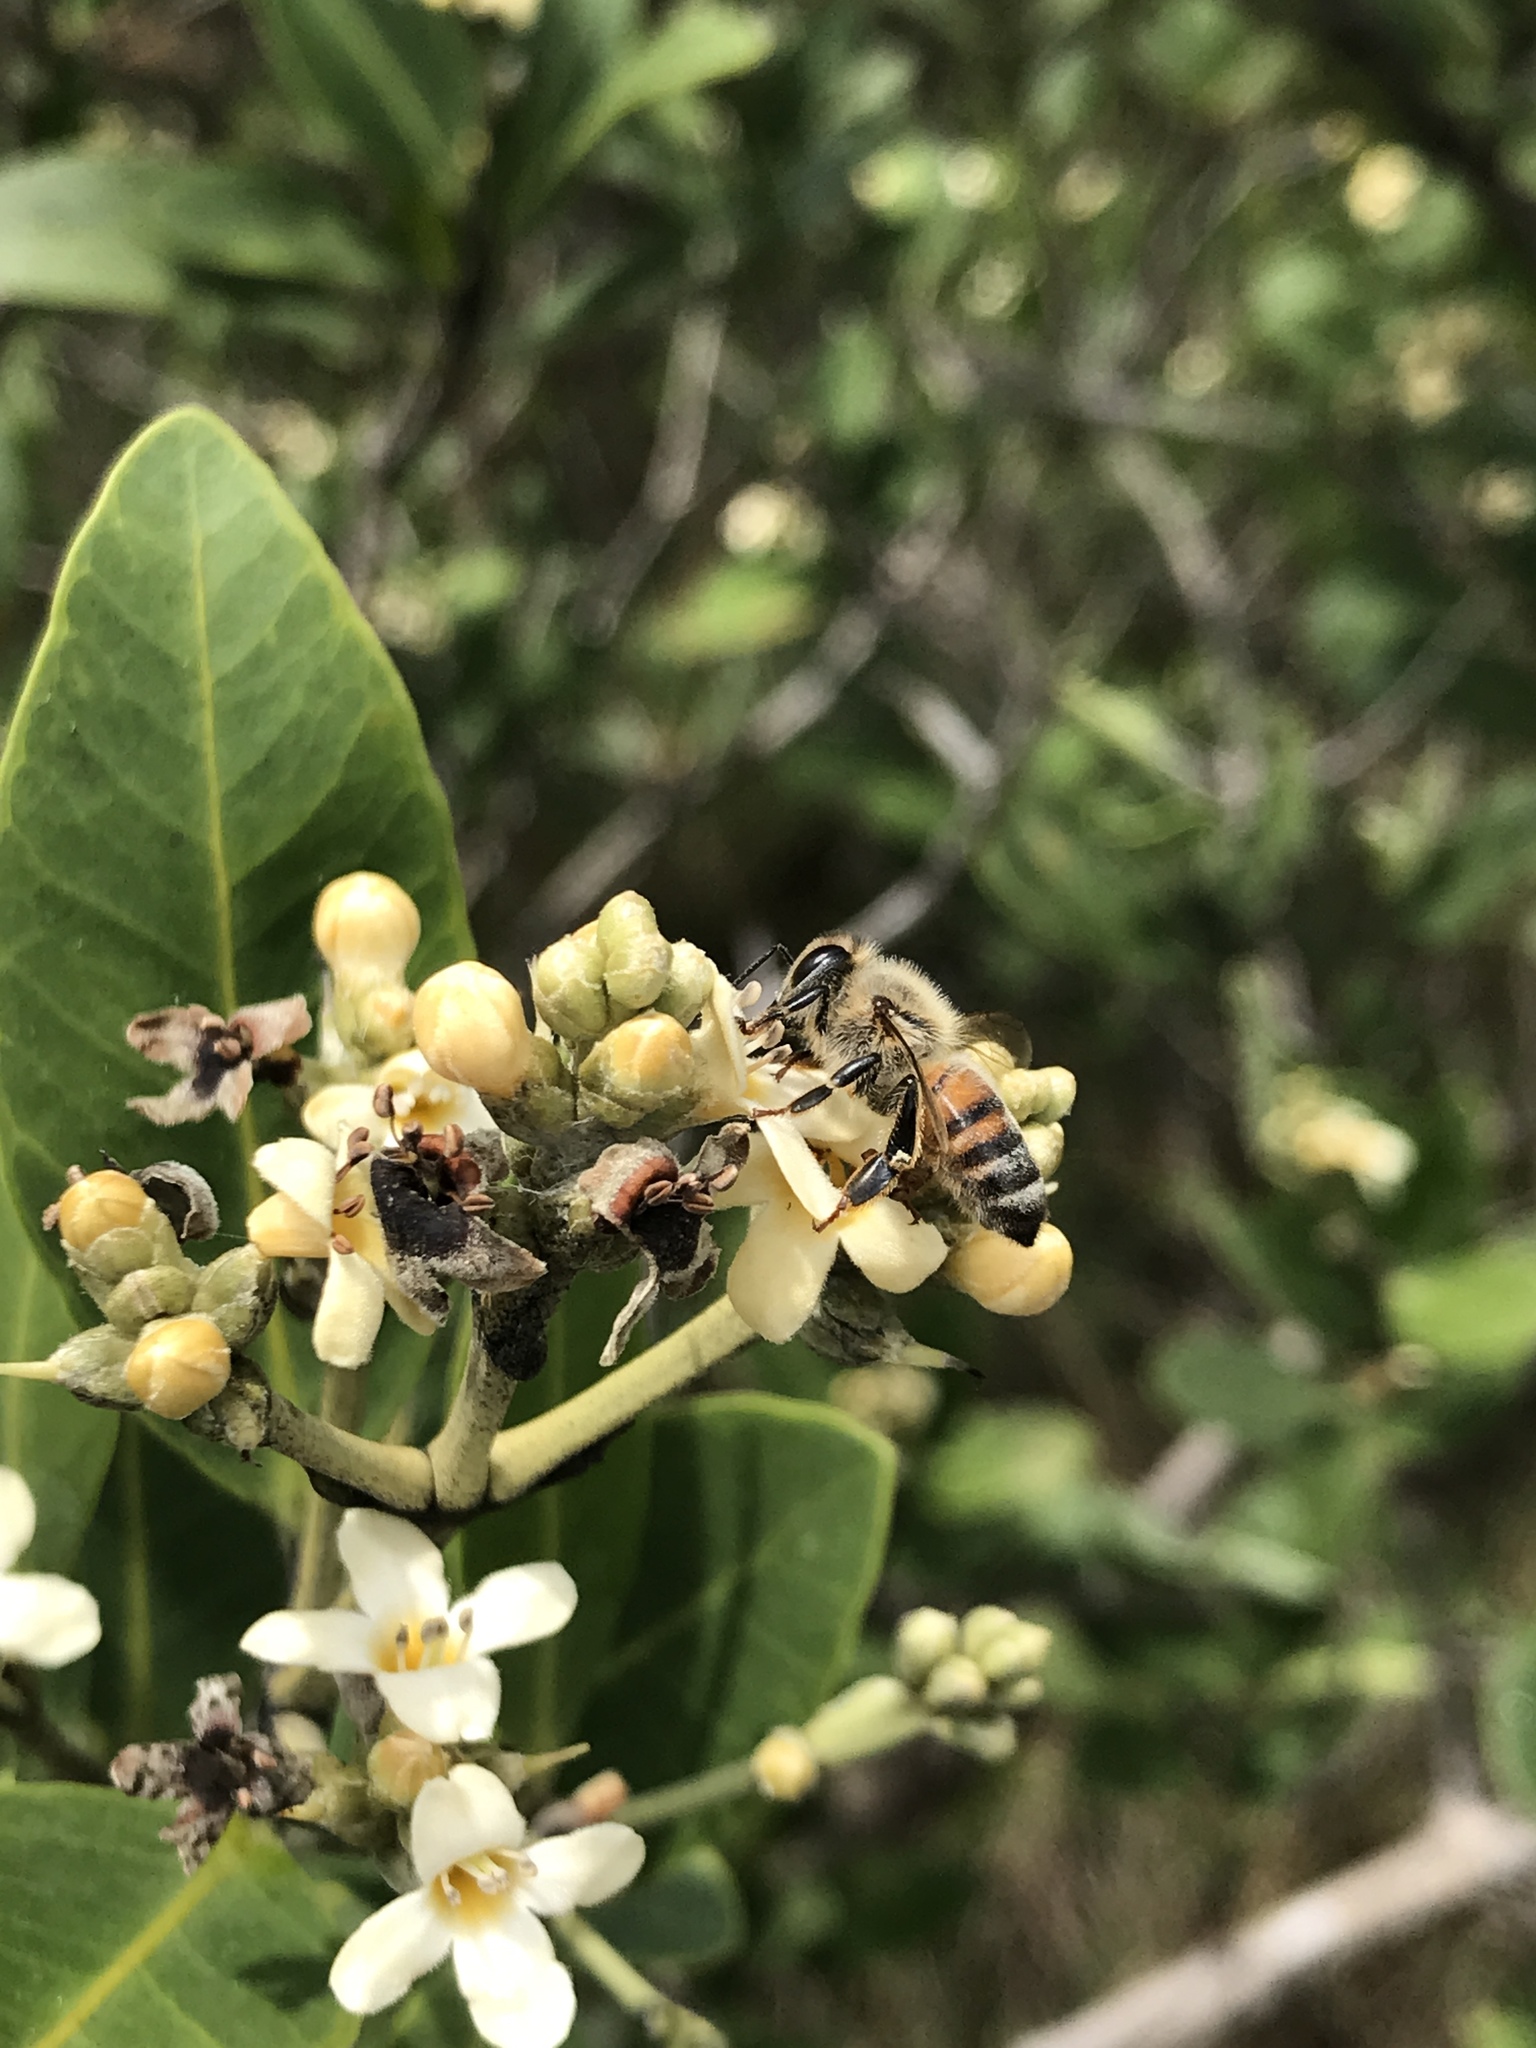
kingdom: Animalia
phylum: Arthropoda
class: Insecta
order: Hymenoptera
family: Apidae
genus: Apis
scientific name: Apis mellifera
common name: Honey bee
